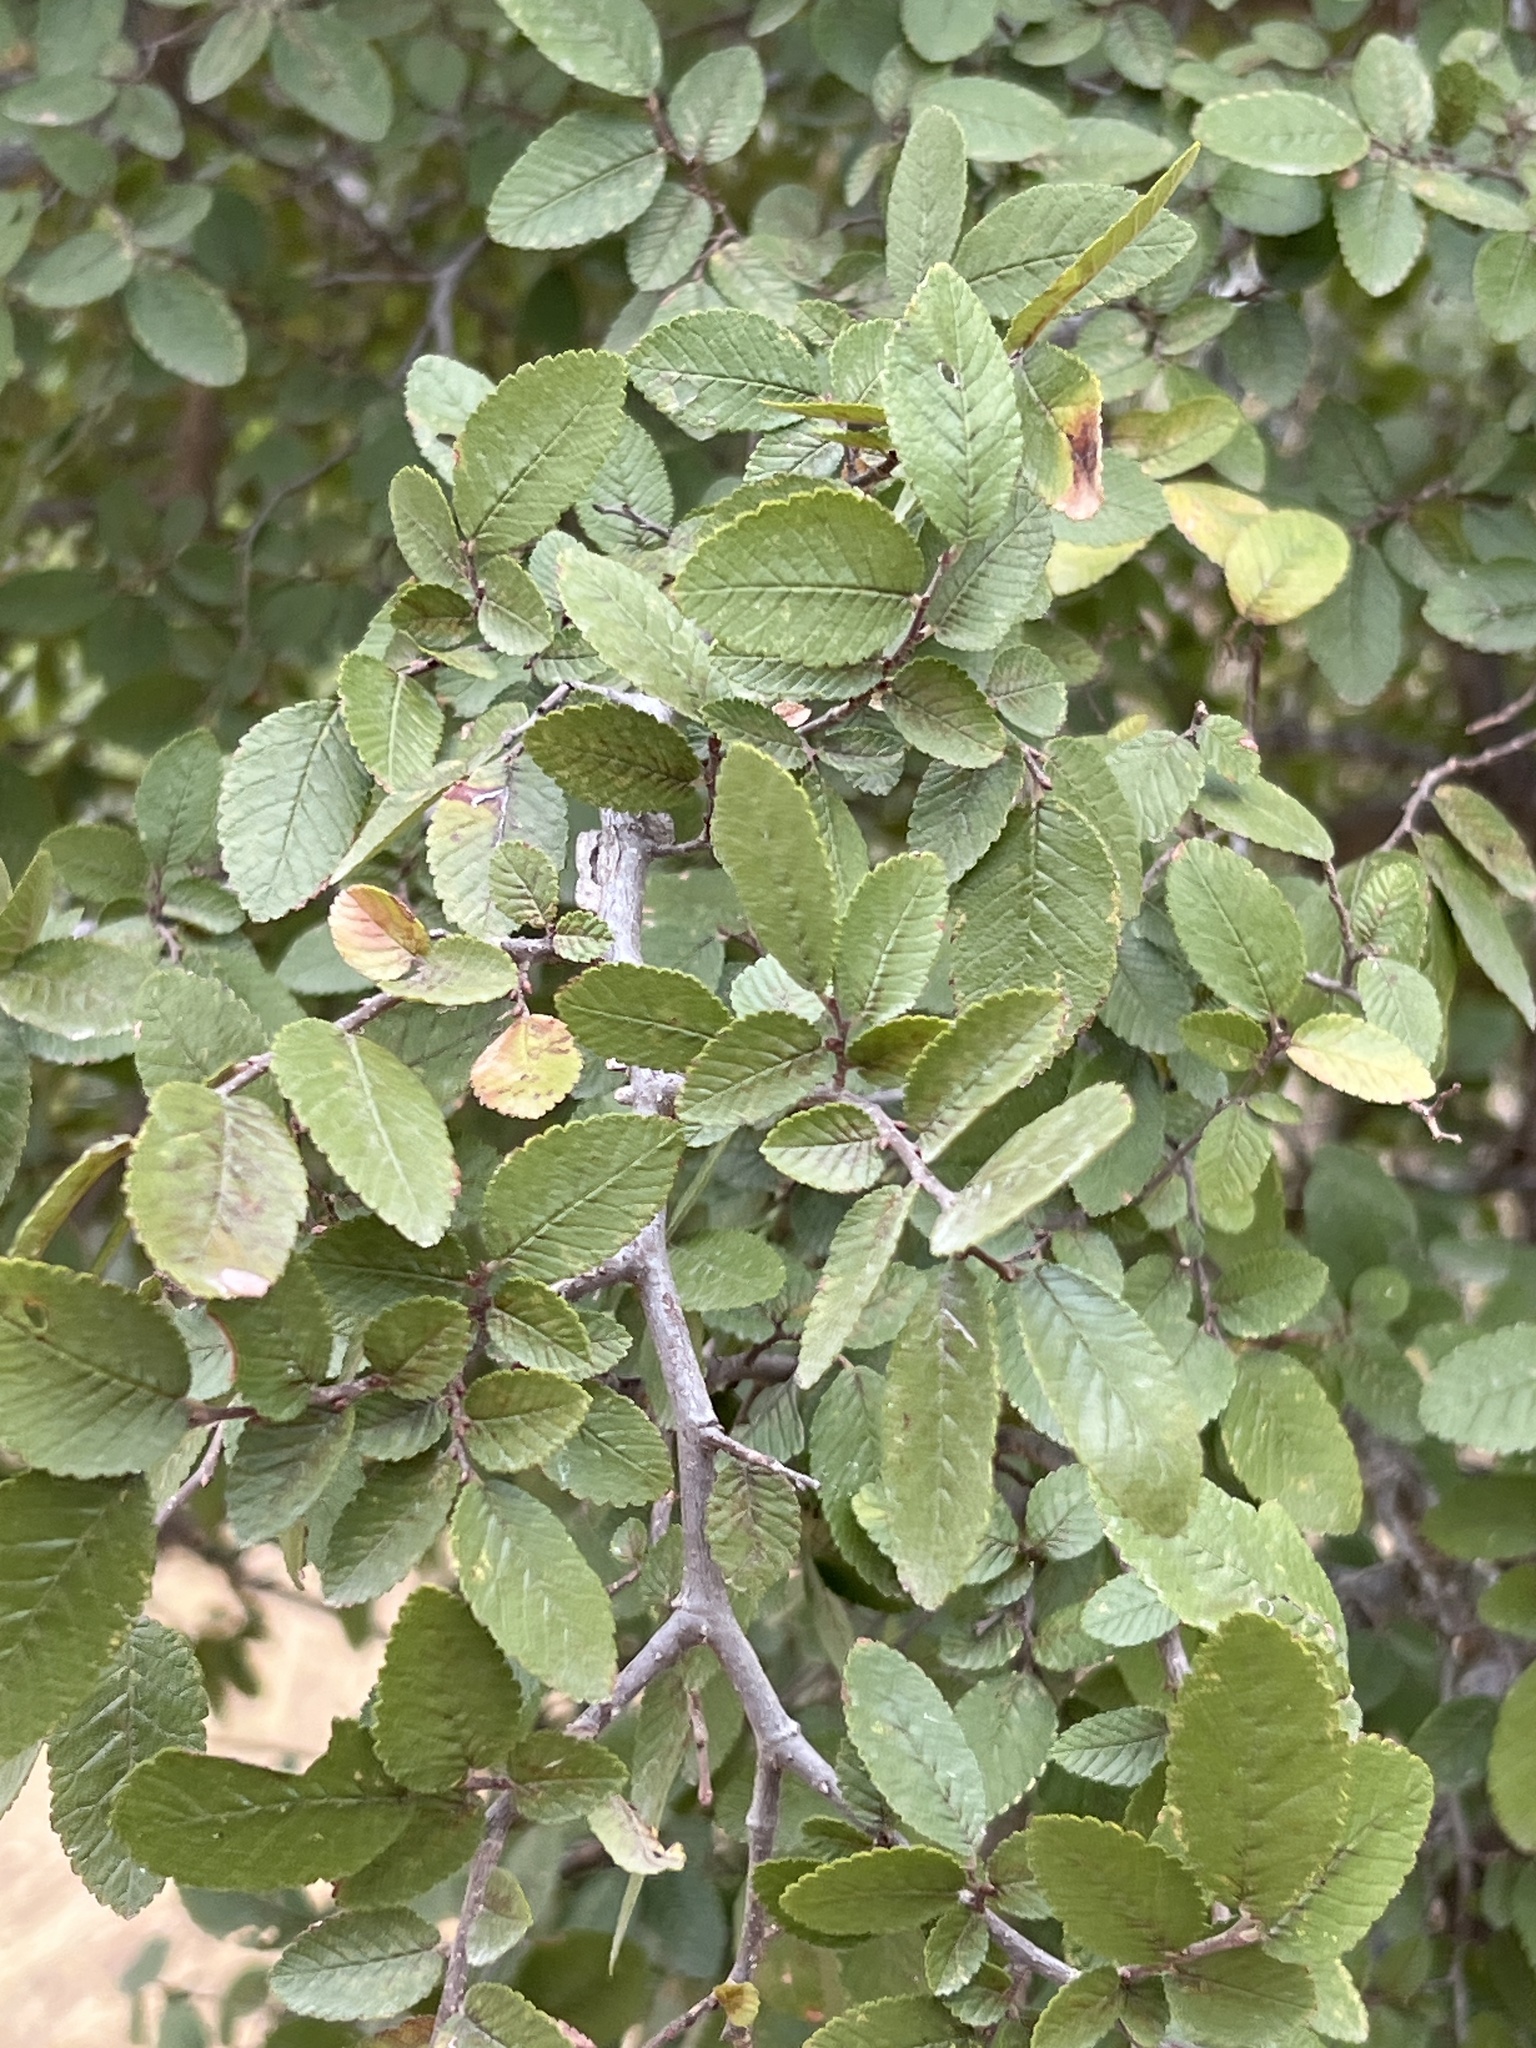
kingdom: Plantae
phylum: Tracheophyta
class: Magnoliopsida
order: Rosales
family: Ulmaceae
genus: Ulmus
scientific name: Ulmus crassifolia
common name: Basket elm
